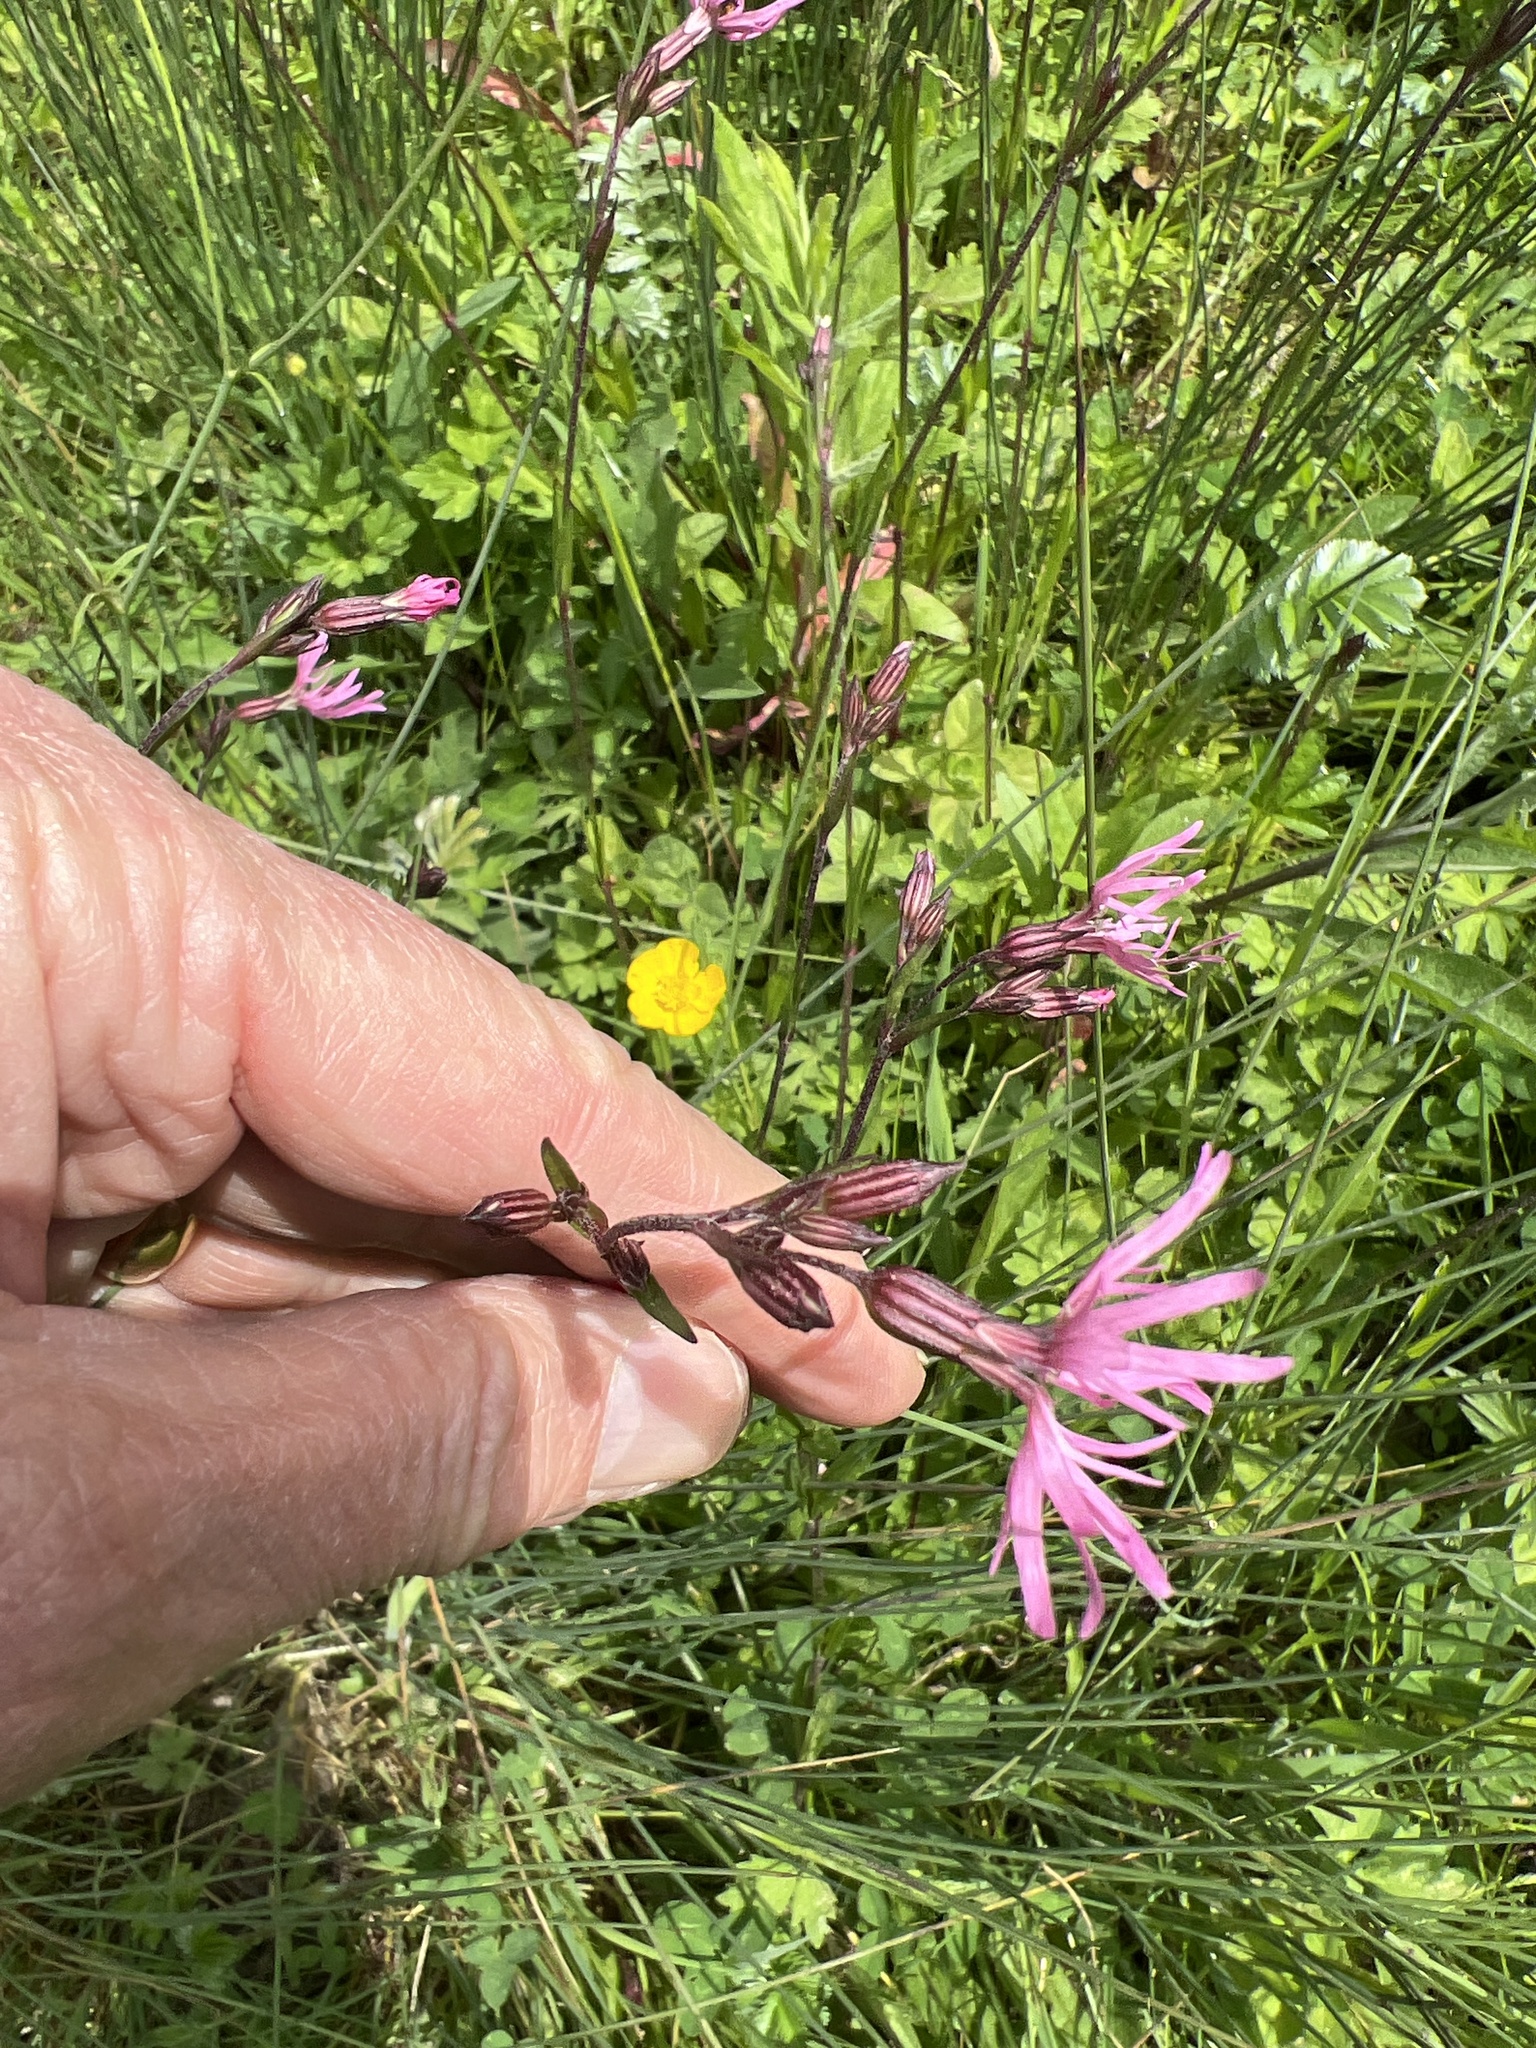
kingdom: Plantae
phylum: Tracheophyta
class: Magnoliopsida
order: Caryophyllales
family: Caryophyllaceae
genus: Silene
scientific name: Silene flos-cuculi
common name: Ragged-robin
